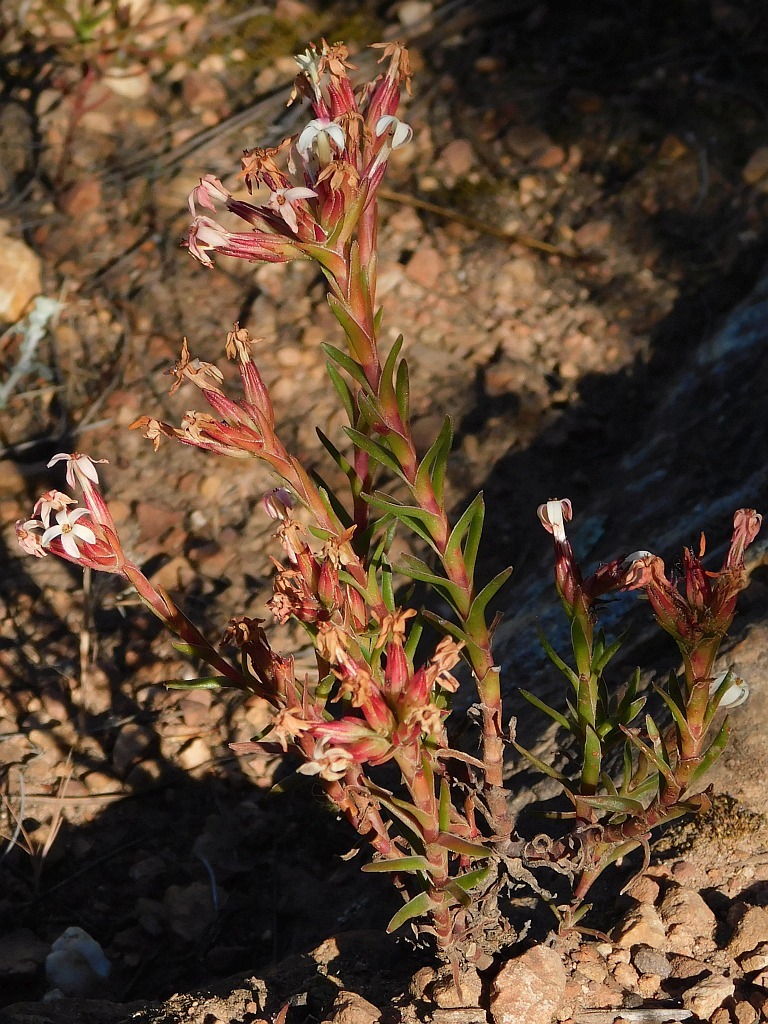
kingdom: Plantae
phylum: Tracheophyta
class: Magnoliopsida
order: Saxifragales
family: Crassulaceae
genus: Crassula
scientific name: Crassula fascicularis
